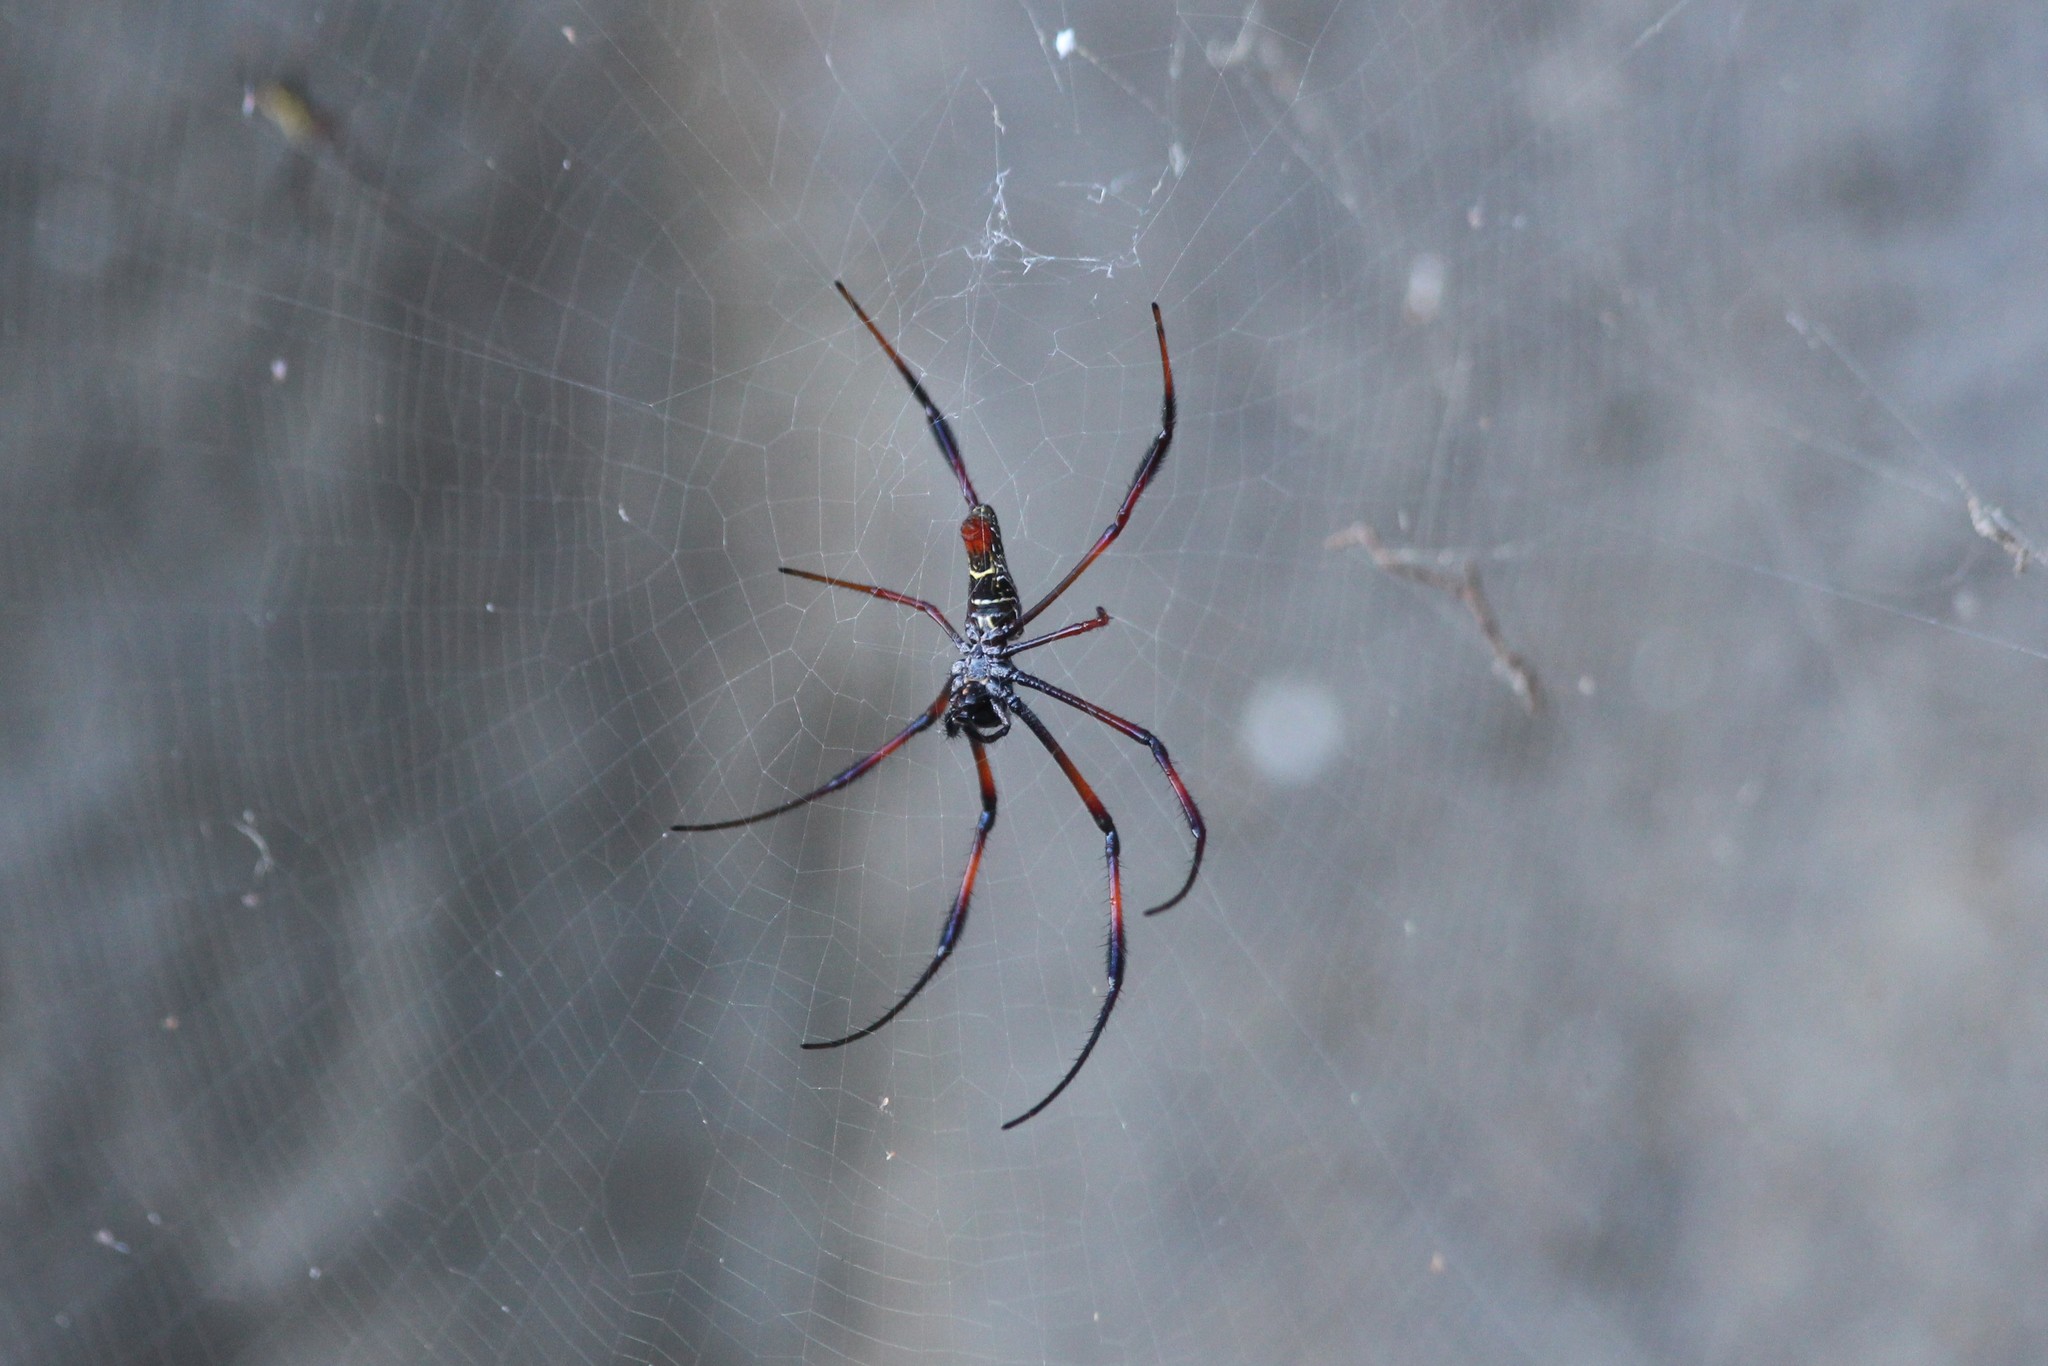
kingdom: Animalia
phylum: Arthropoda
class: Arachnida
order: Araneae
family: Araneidae
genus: Trichonephila
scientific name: Trichonephila inaurata
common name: Red-legged golden orb weaver
